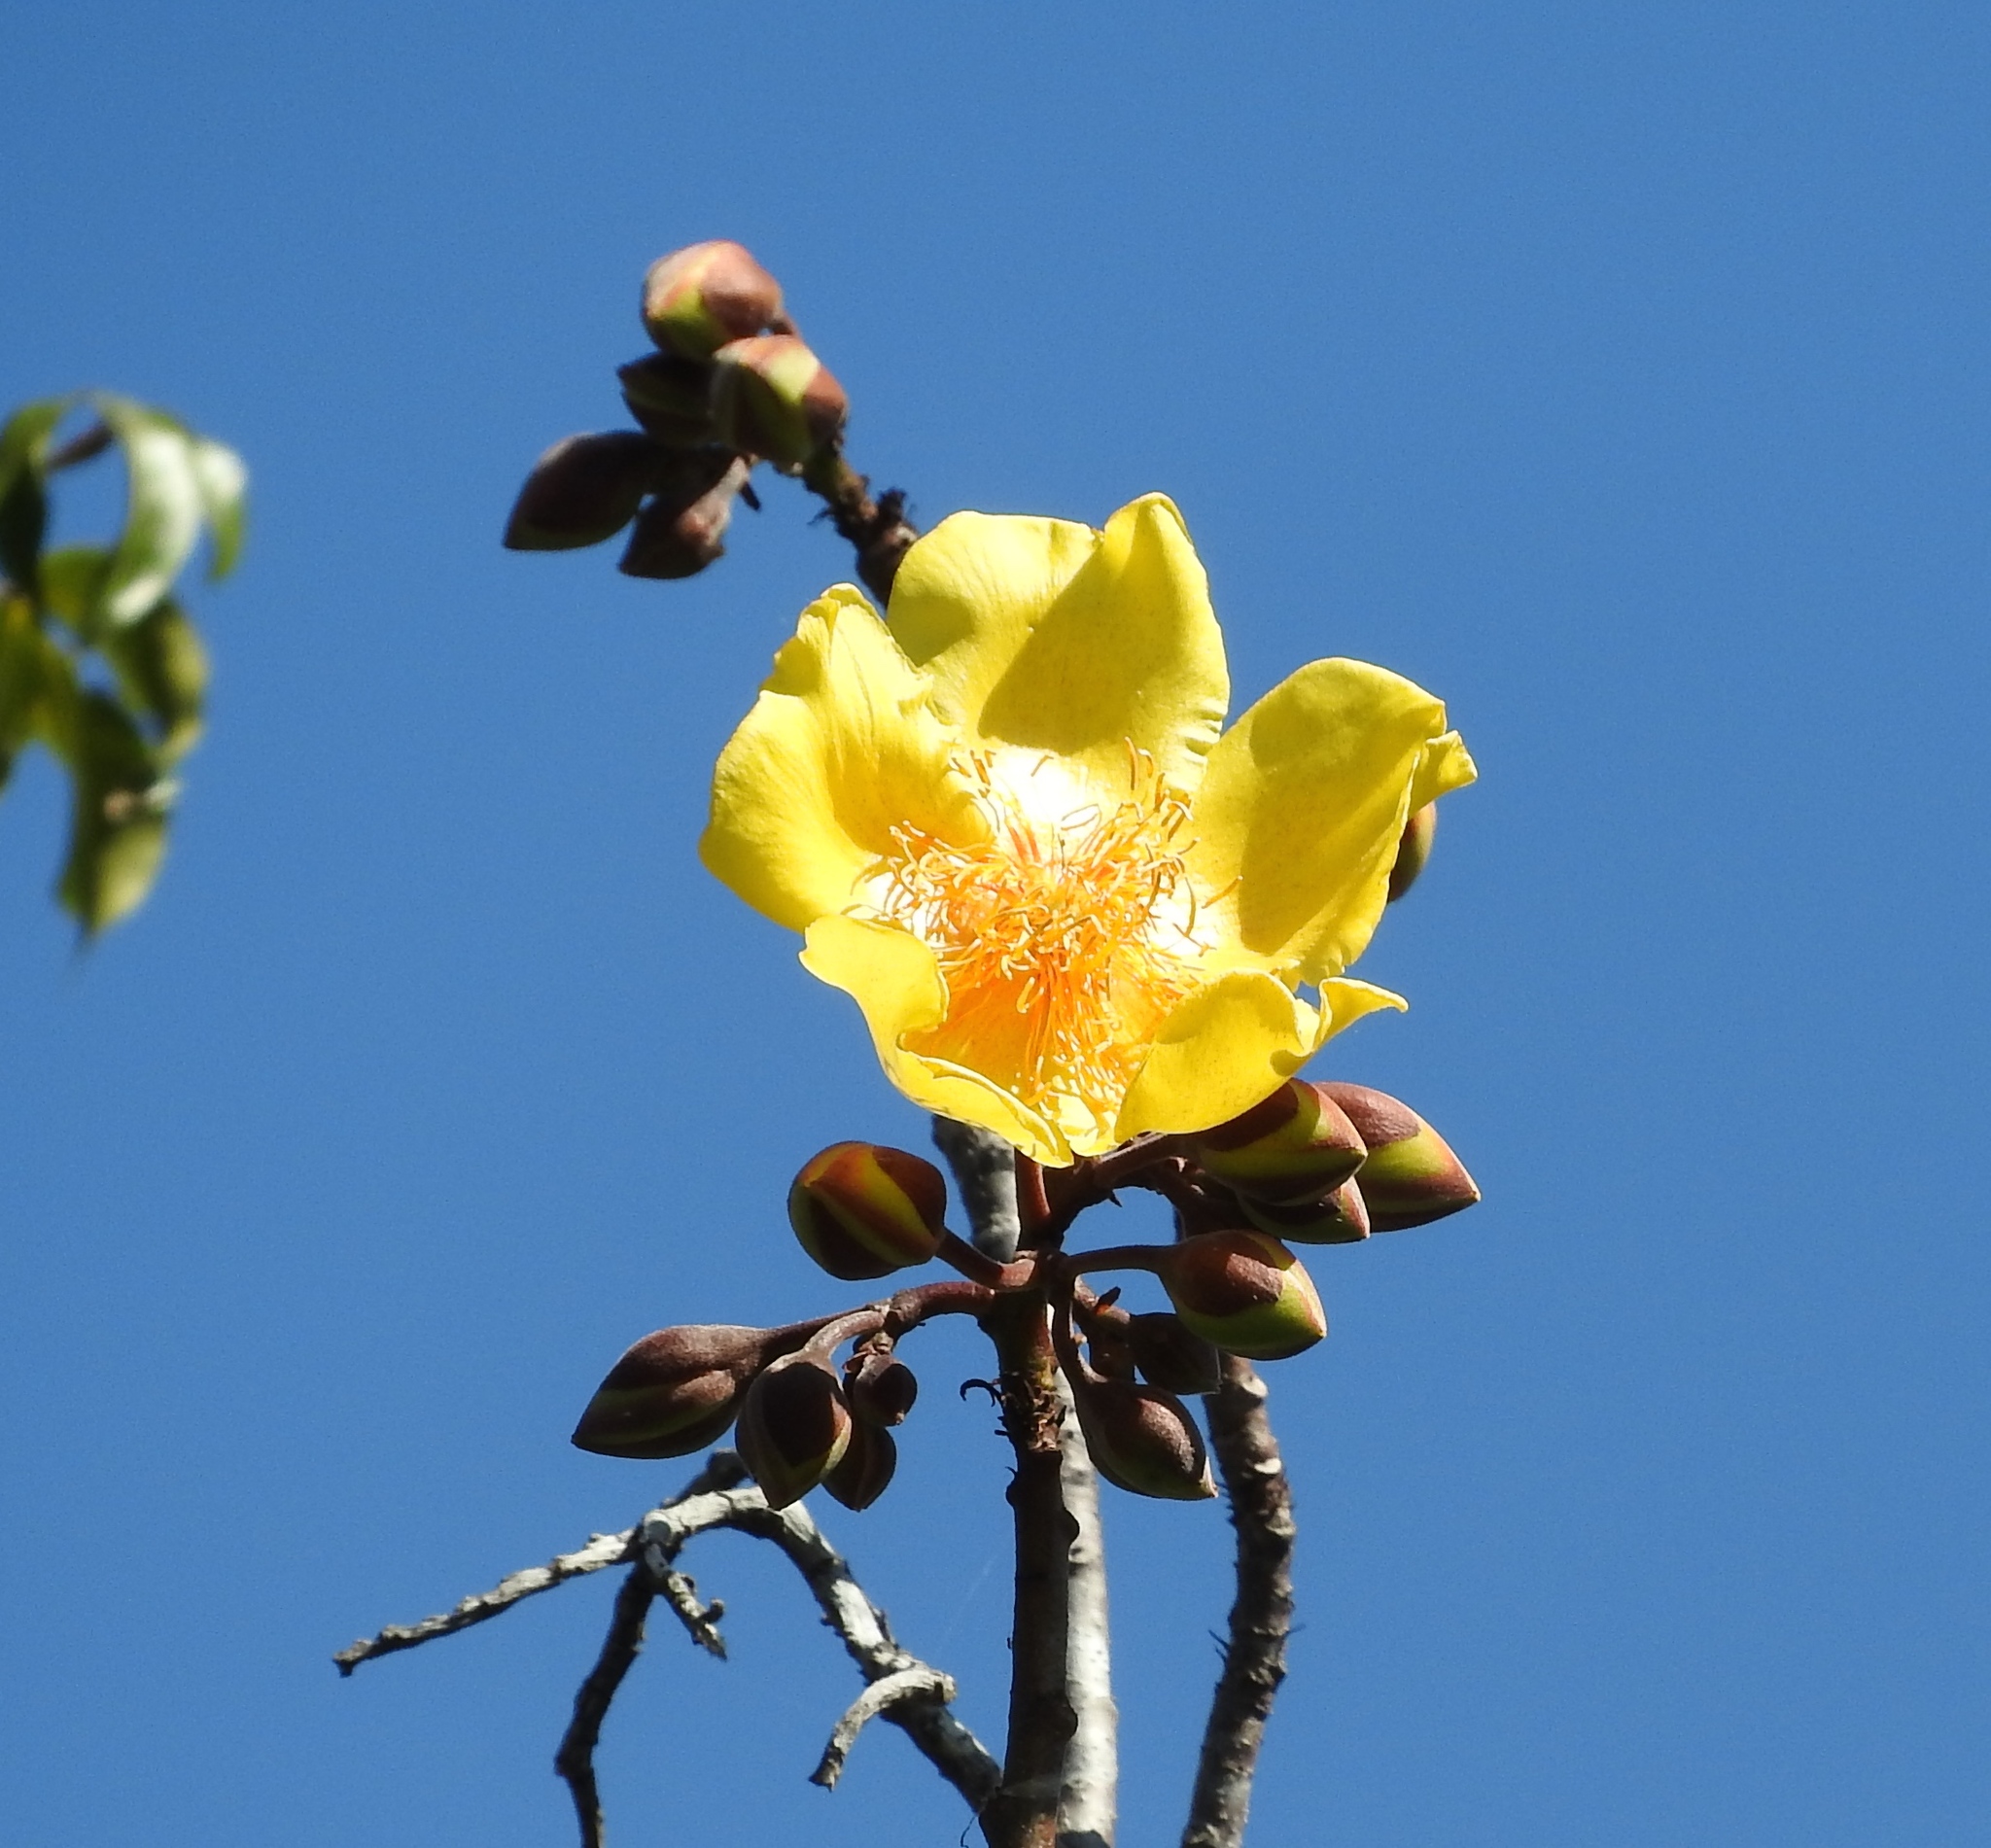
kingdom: Plantae
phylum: Tracheophyta
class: Magnoliopsida
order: Malvales
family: Cochlospermaceae
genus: Cochlospermum
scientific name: Cochlospermum vitifolium
